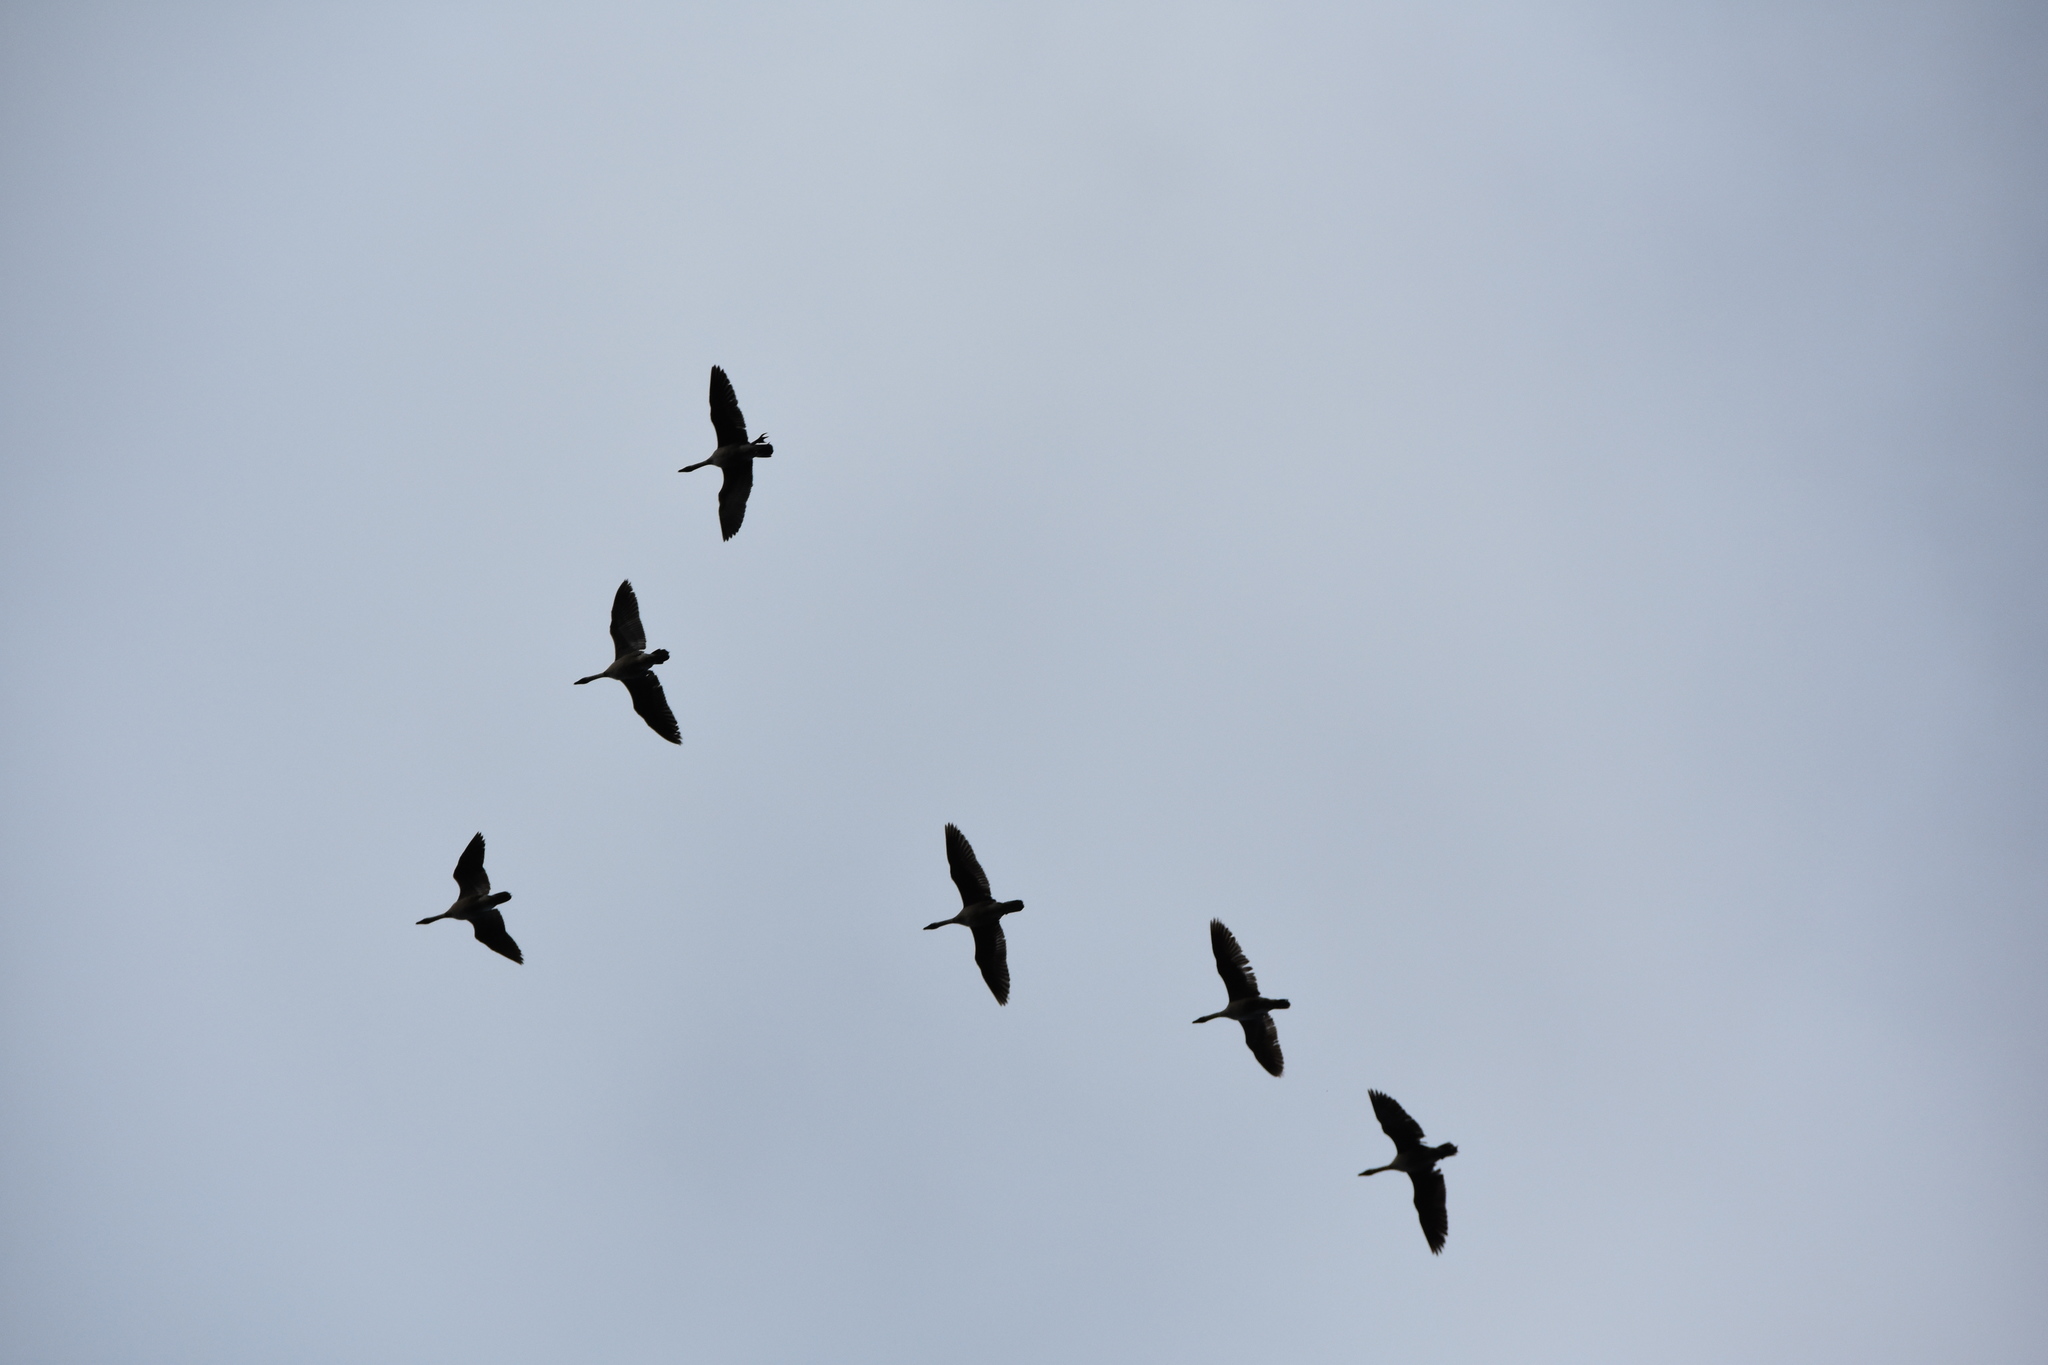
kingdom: Animalia
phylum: Chordata
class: Aves
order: Anseriformes
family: Anatidae
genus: Branta
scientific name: Branta sandvicensis
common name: Nene
